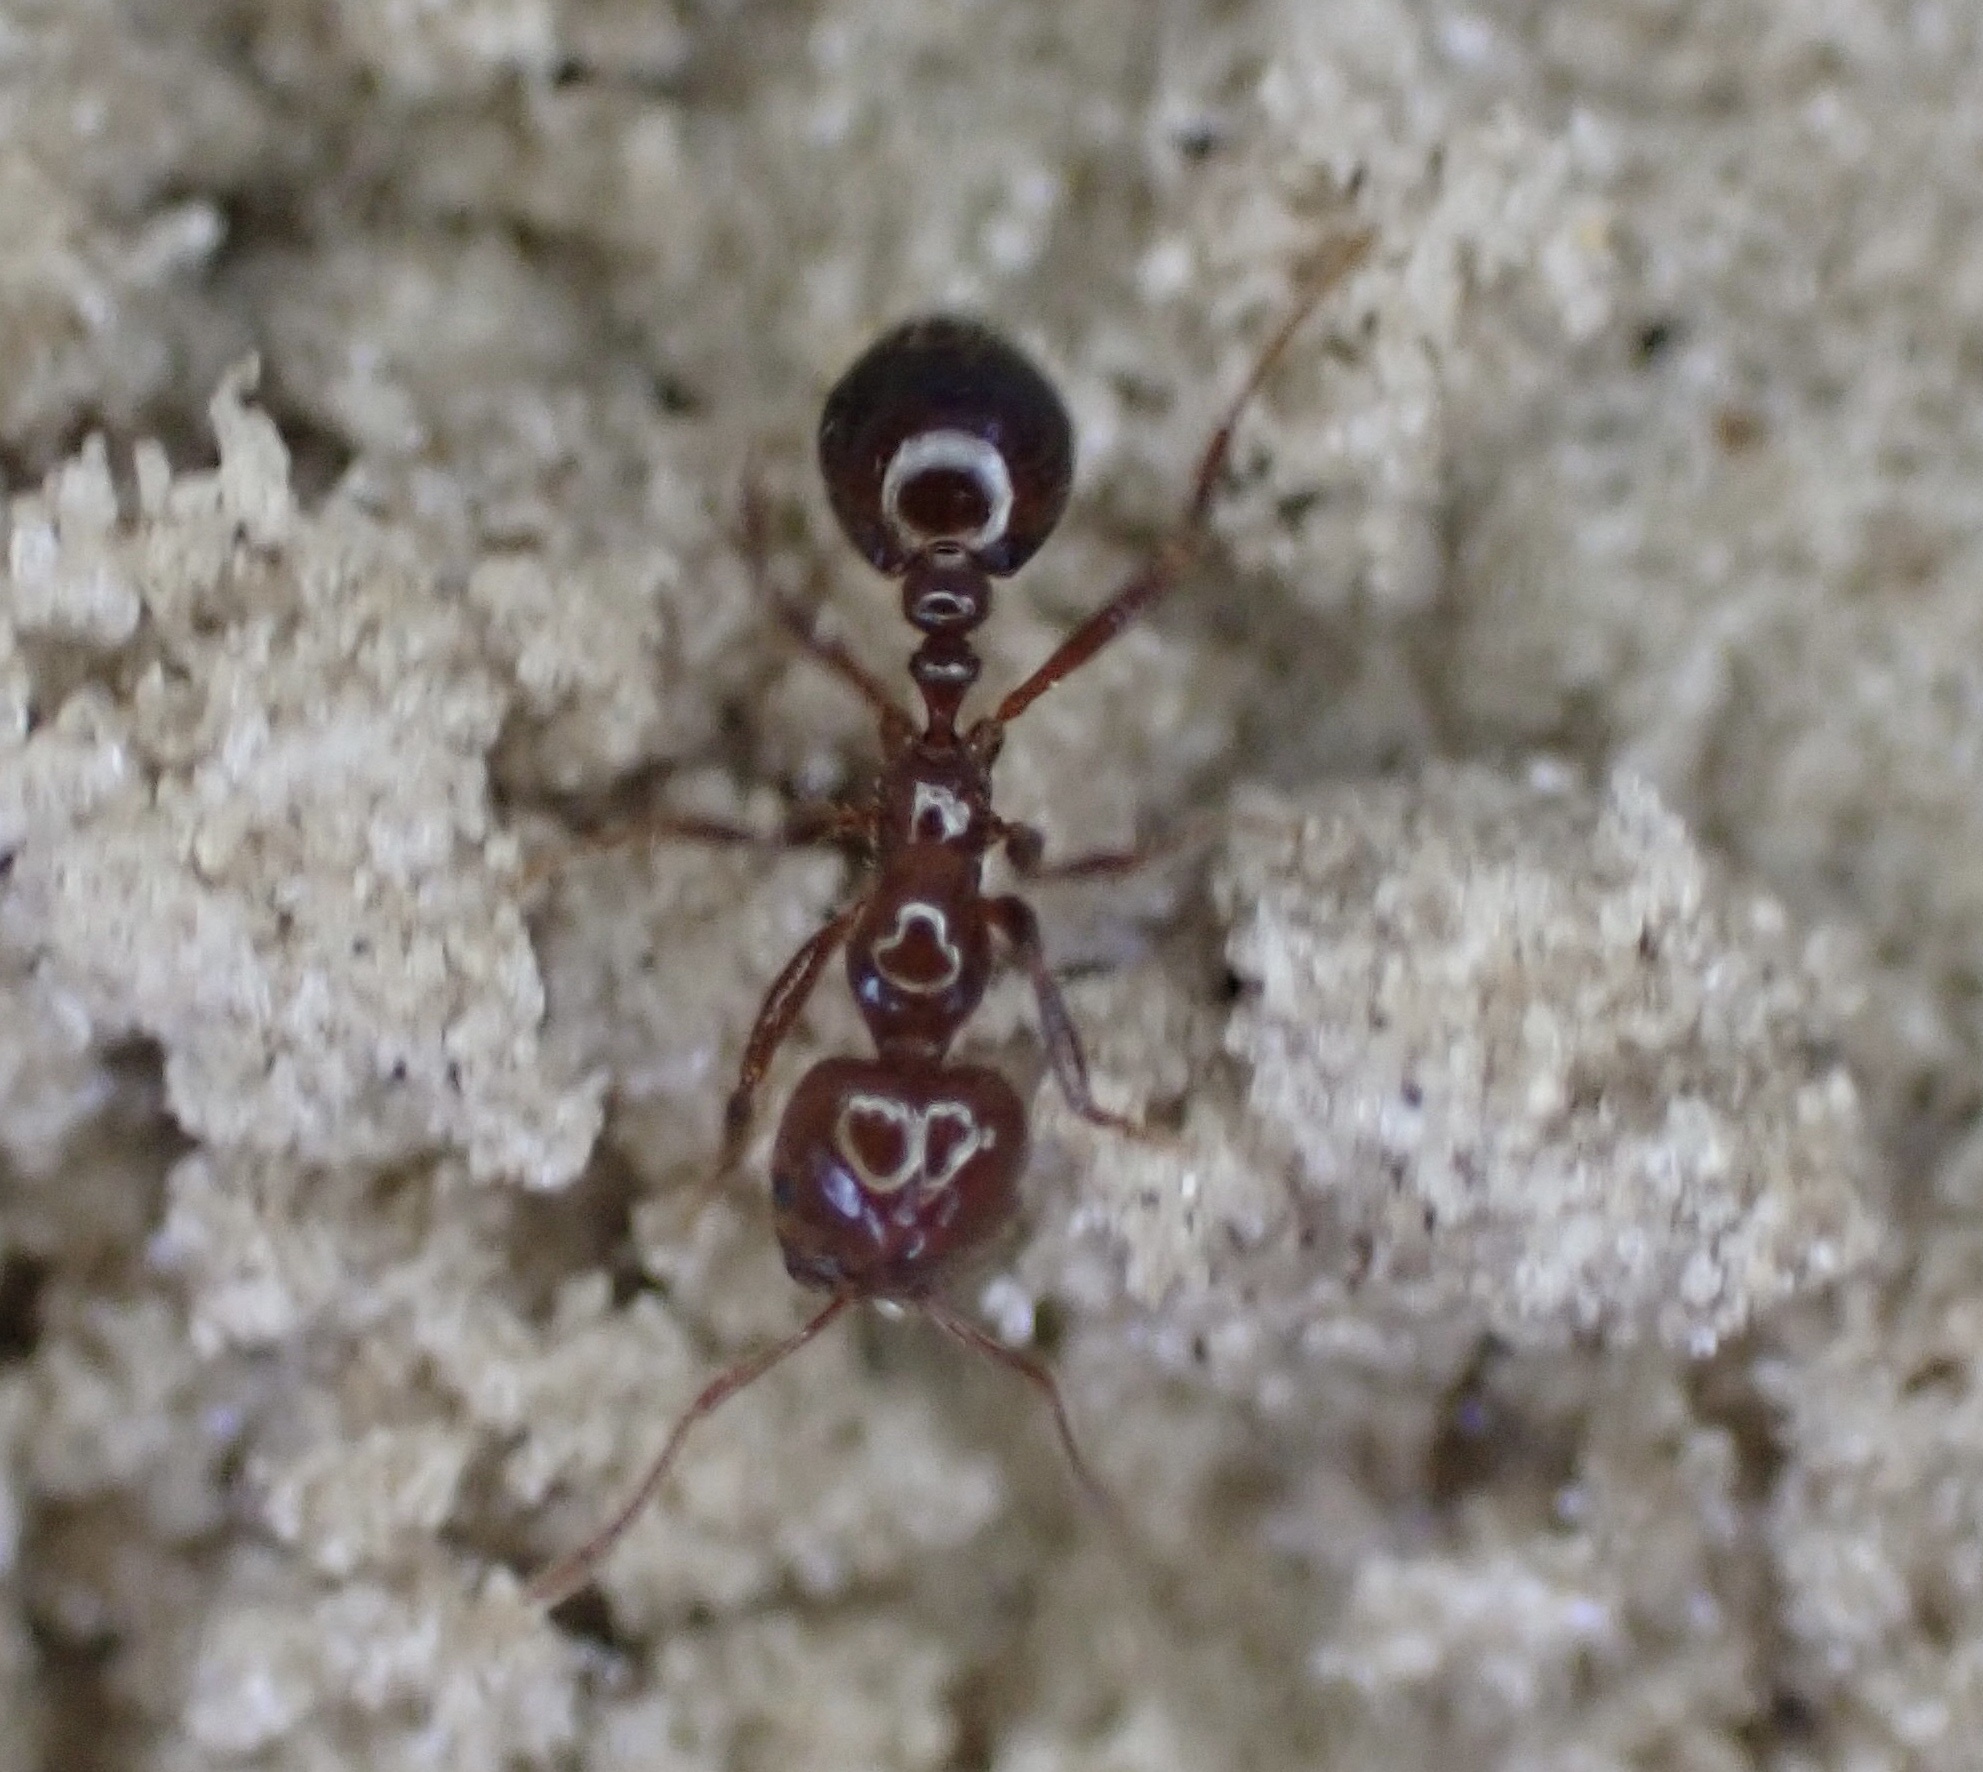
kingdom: Animalia
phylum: Arthropoda
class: Insecta
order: Hymenoptera
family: Formicidae
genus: Solenopsis
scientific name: Solenopsis invicta
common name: Red imported fire ant
